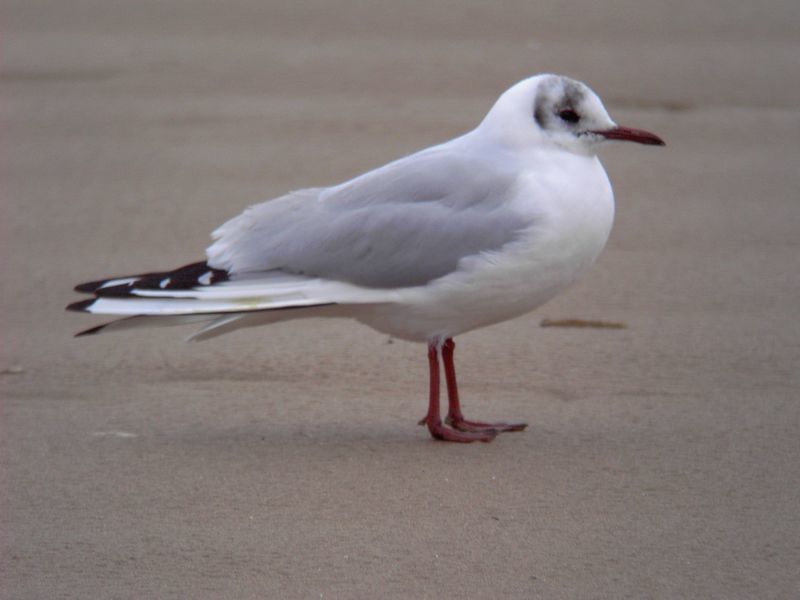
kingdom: Animalia
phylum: Chordata
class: Aves
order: Charadriiformes
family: Laridae
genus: Chroicocephalus
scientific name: Chroicocephalus ridibundus
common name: Black-headed gull
